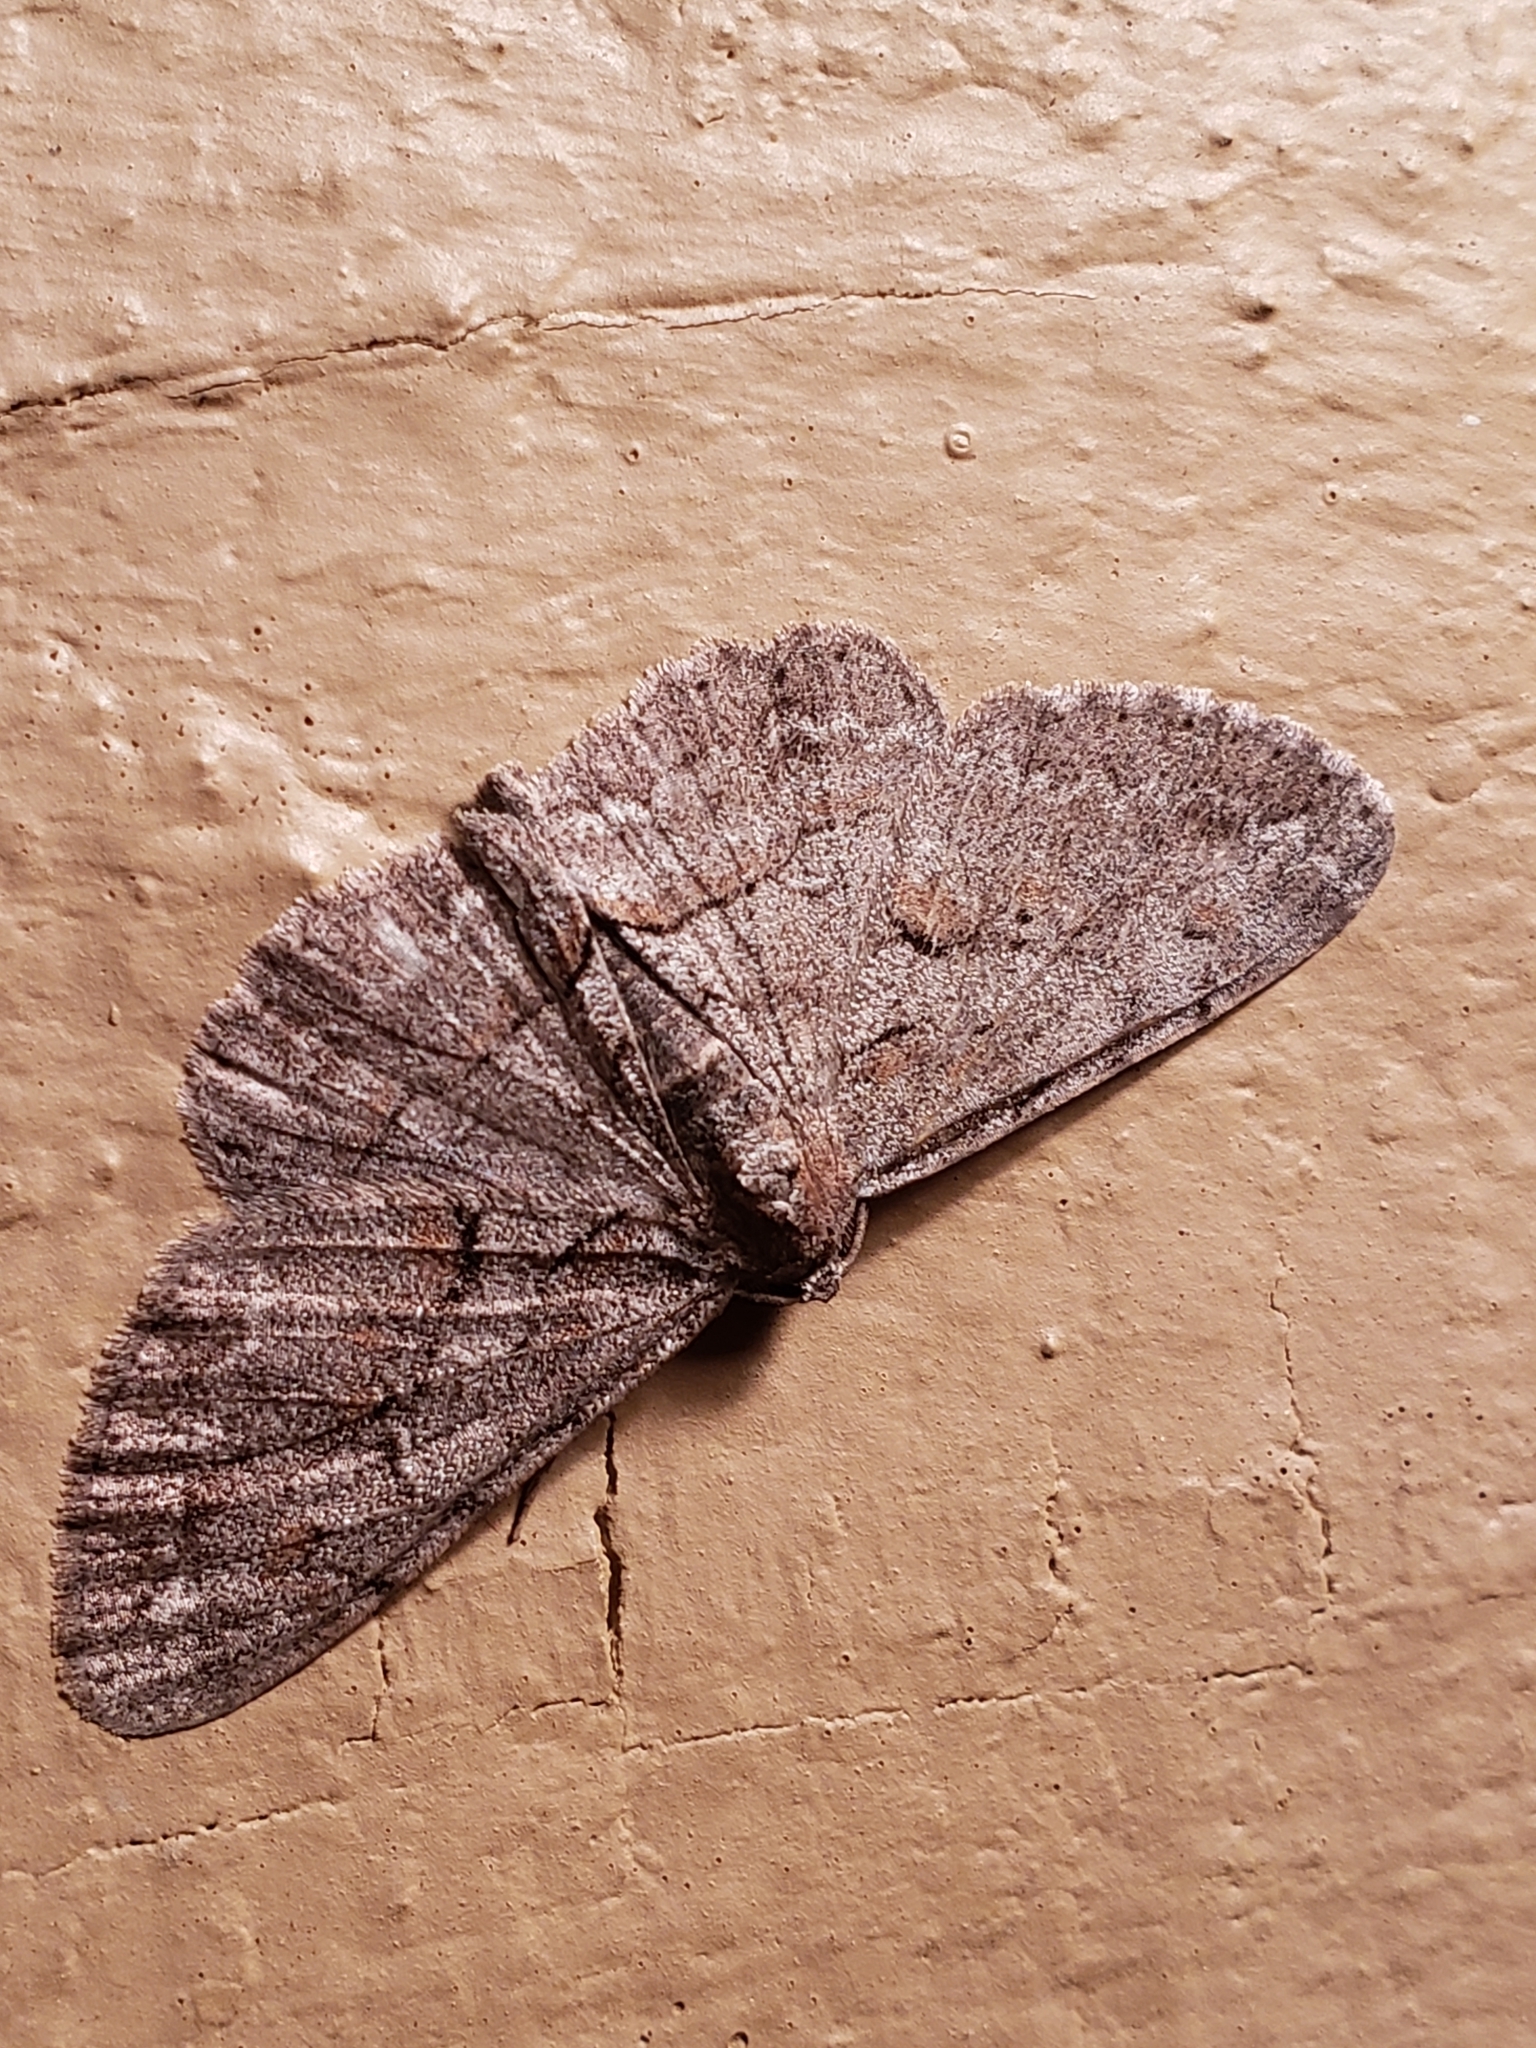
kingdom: Animalia
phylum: Arthropoda
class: Insecta
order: Lepidoptera
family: Geometridae
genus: Iridopsis
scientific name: Iridopsis vellivolata
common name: Large purplish gray
